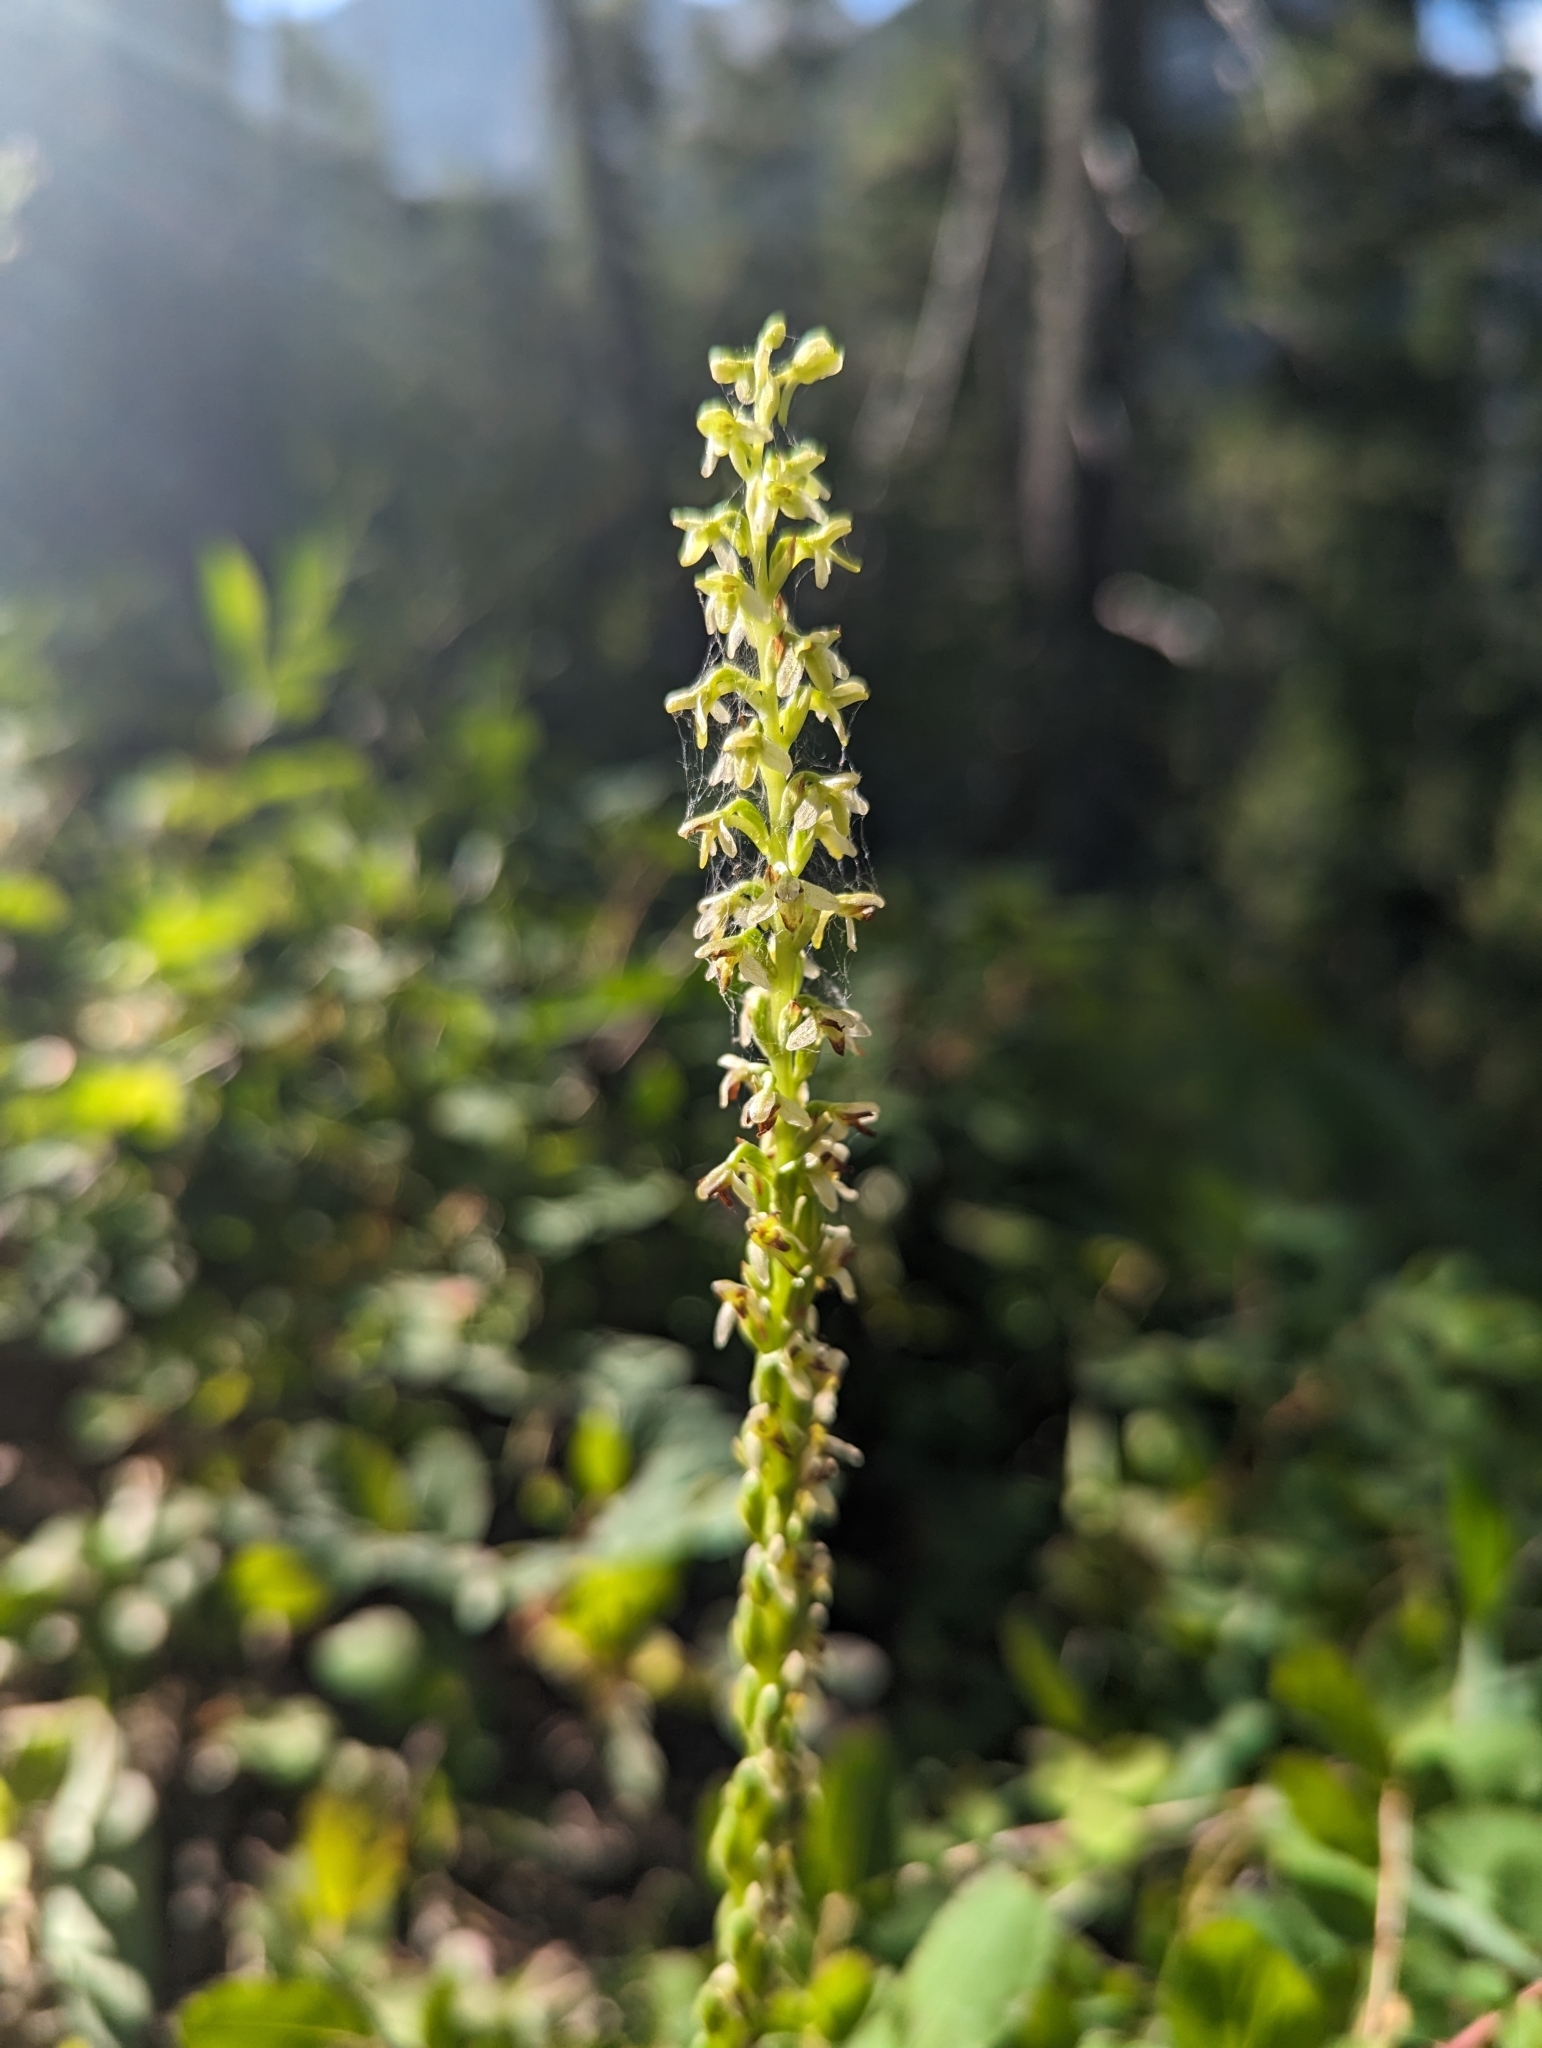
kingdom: Plantae
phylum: Tracheophyta
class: Liliopsida
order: Asparagales
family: Orchidaceae
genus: Platanthera
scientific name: Platanthera unalascensis
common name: Alaska bog orchid
